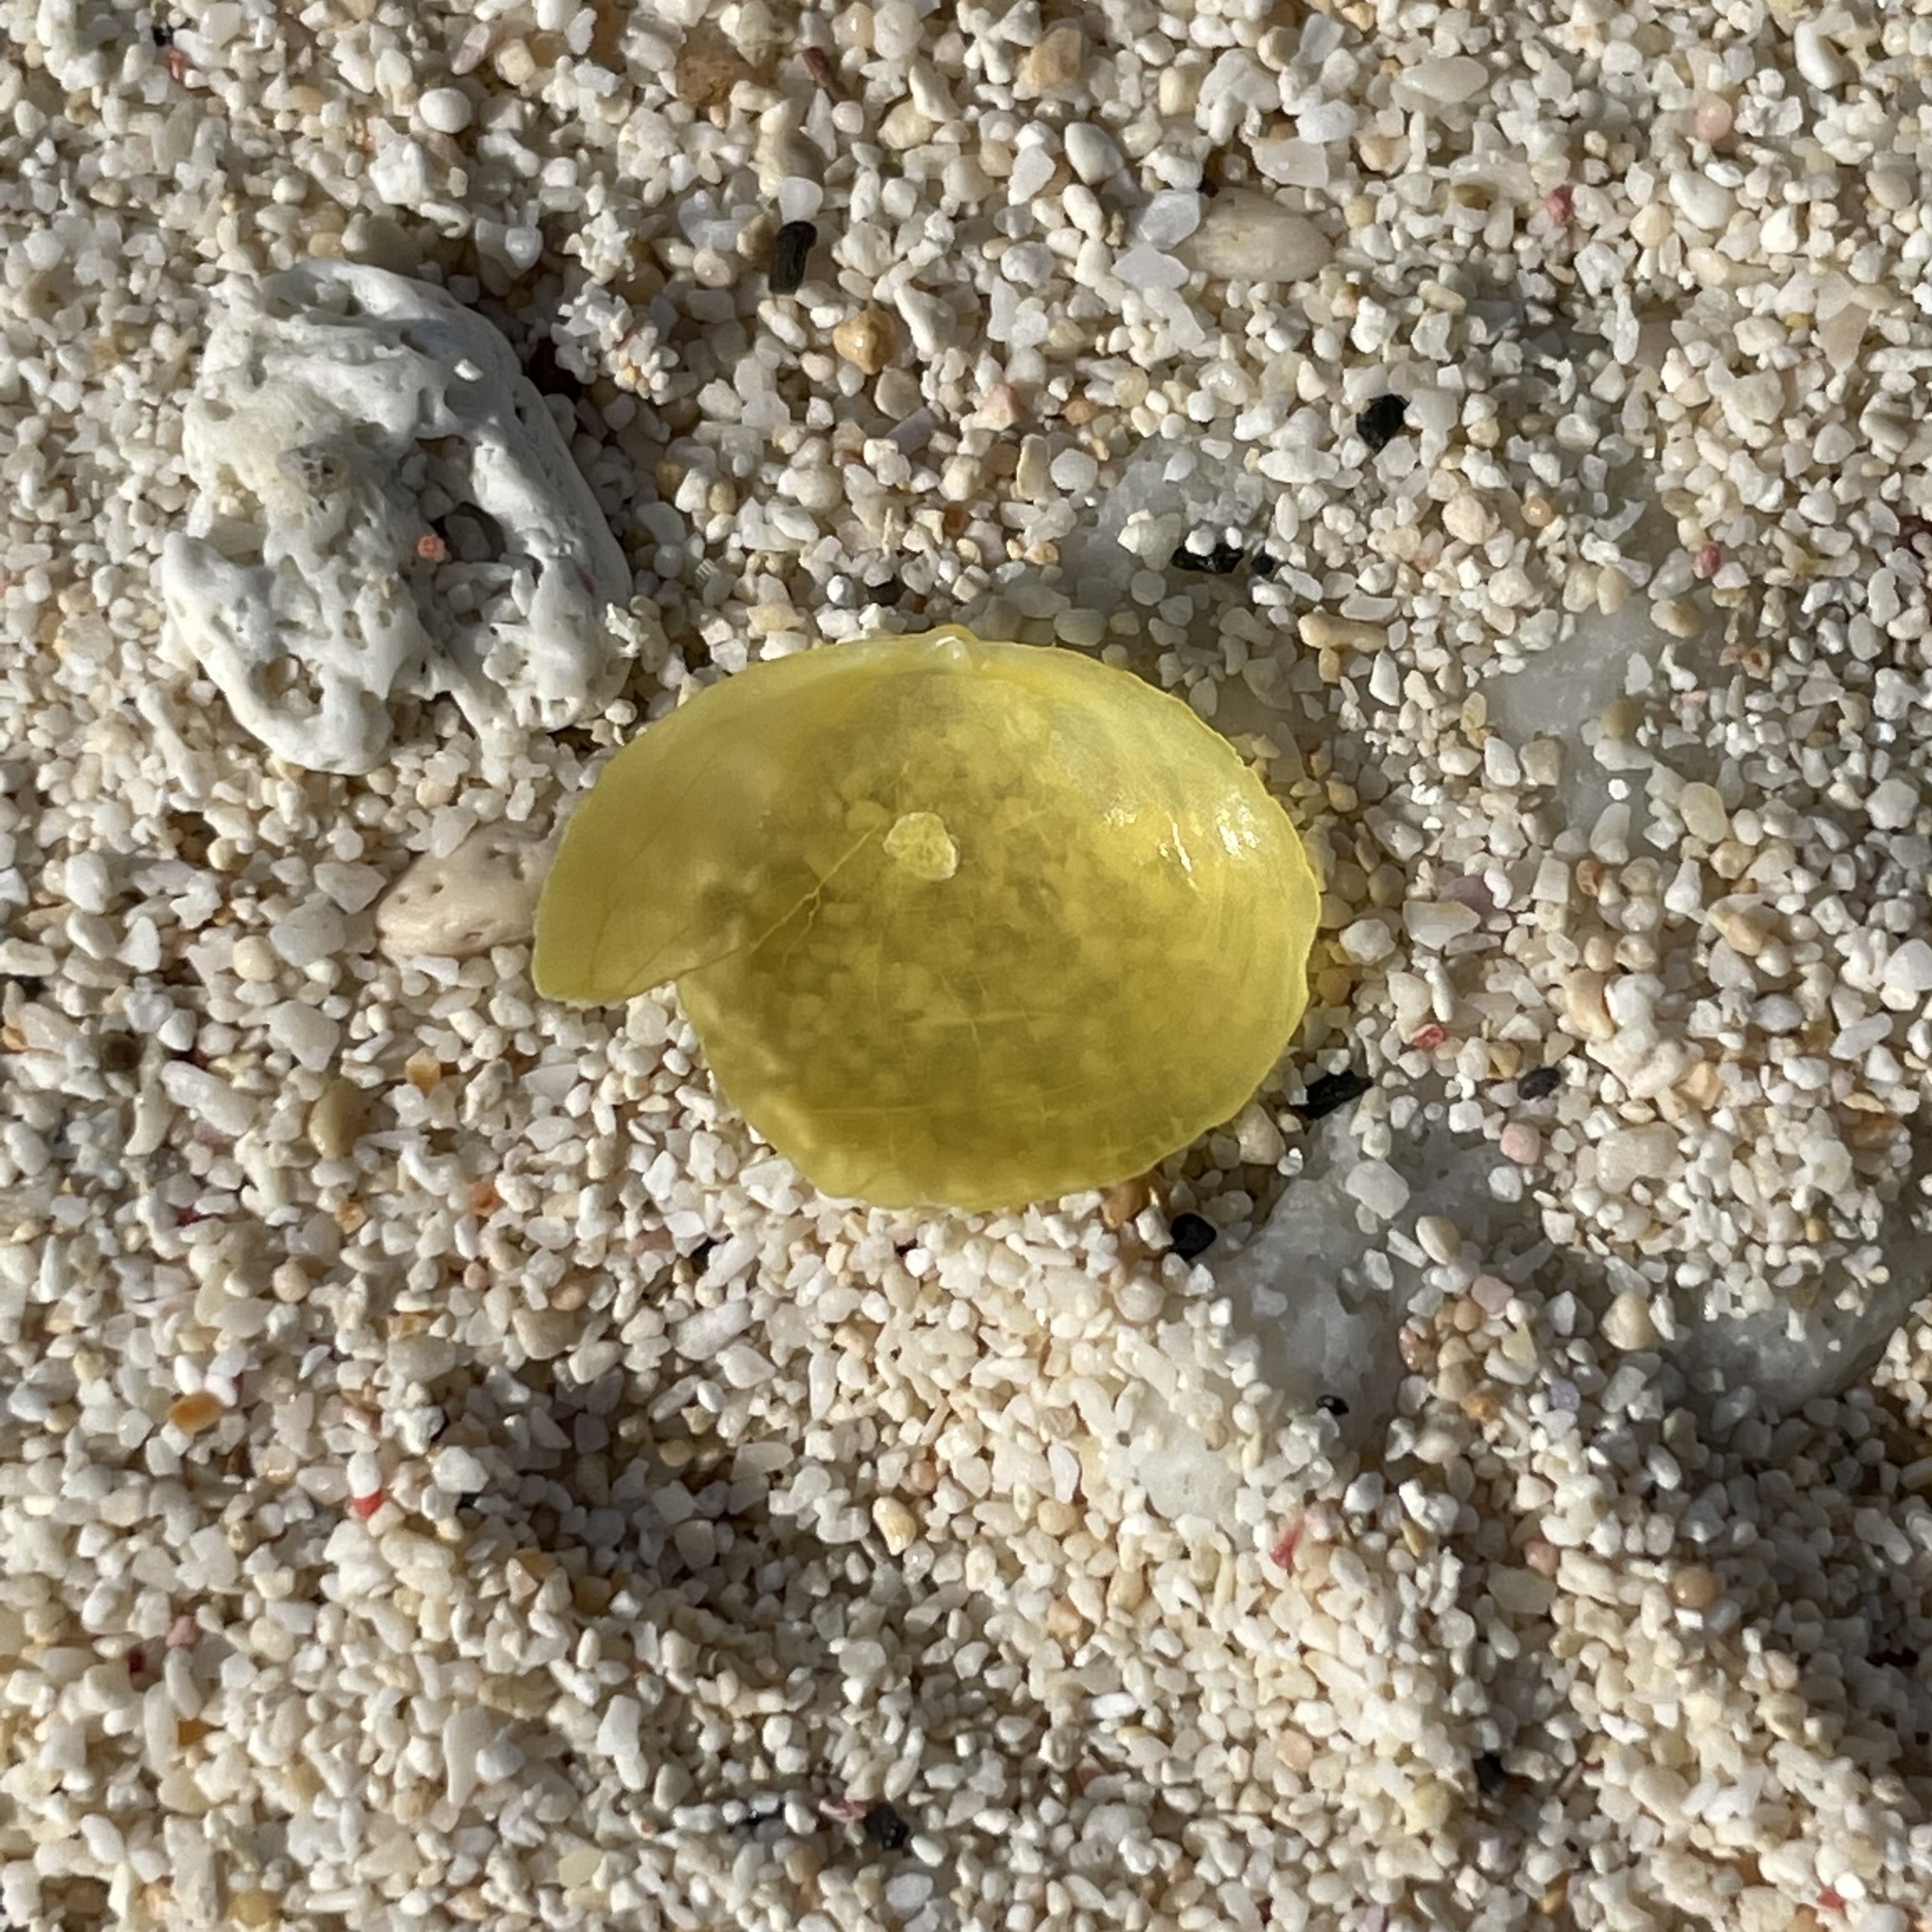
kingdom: Animalia
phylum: Mollusca
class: Bivalvia
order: Galeommatida
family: Galeommatidae
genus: Scintilla
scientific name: Scintilla timoriensis
